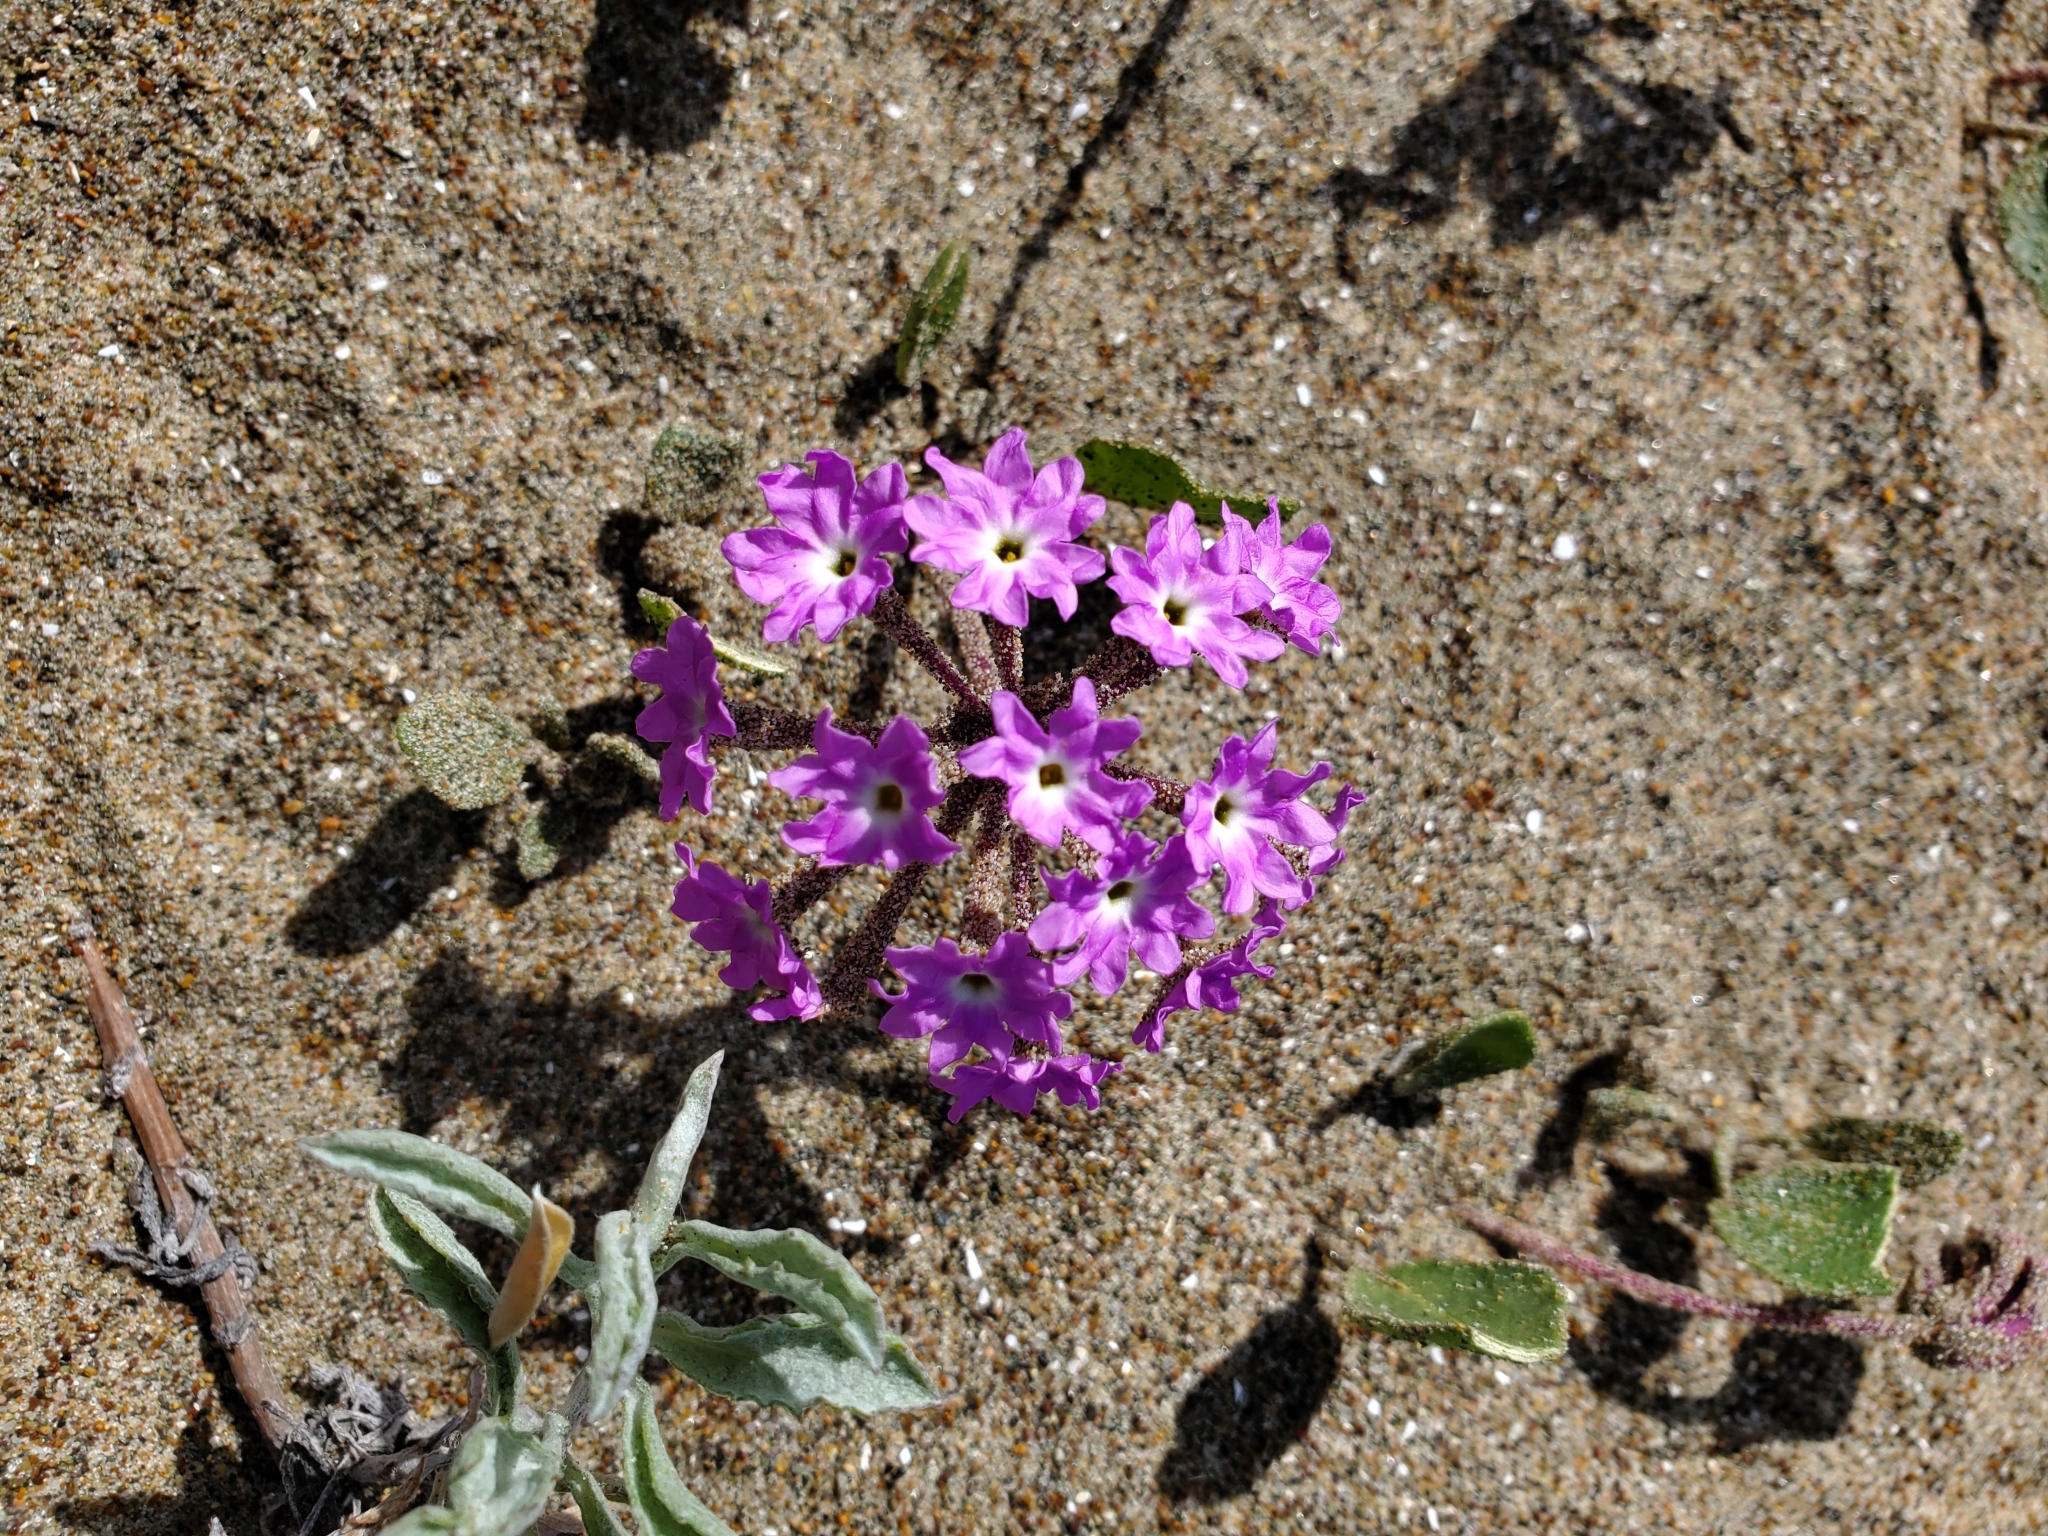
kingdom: Plantae
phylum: Tracheophyta
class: Magnoliopsida
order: Caryophyllales
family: Nyctaginaceae
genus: Abronia
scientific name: Abronia umbellata
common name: Sand-verbena
